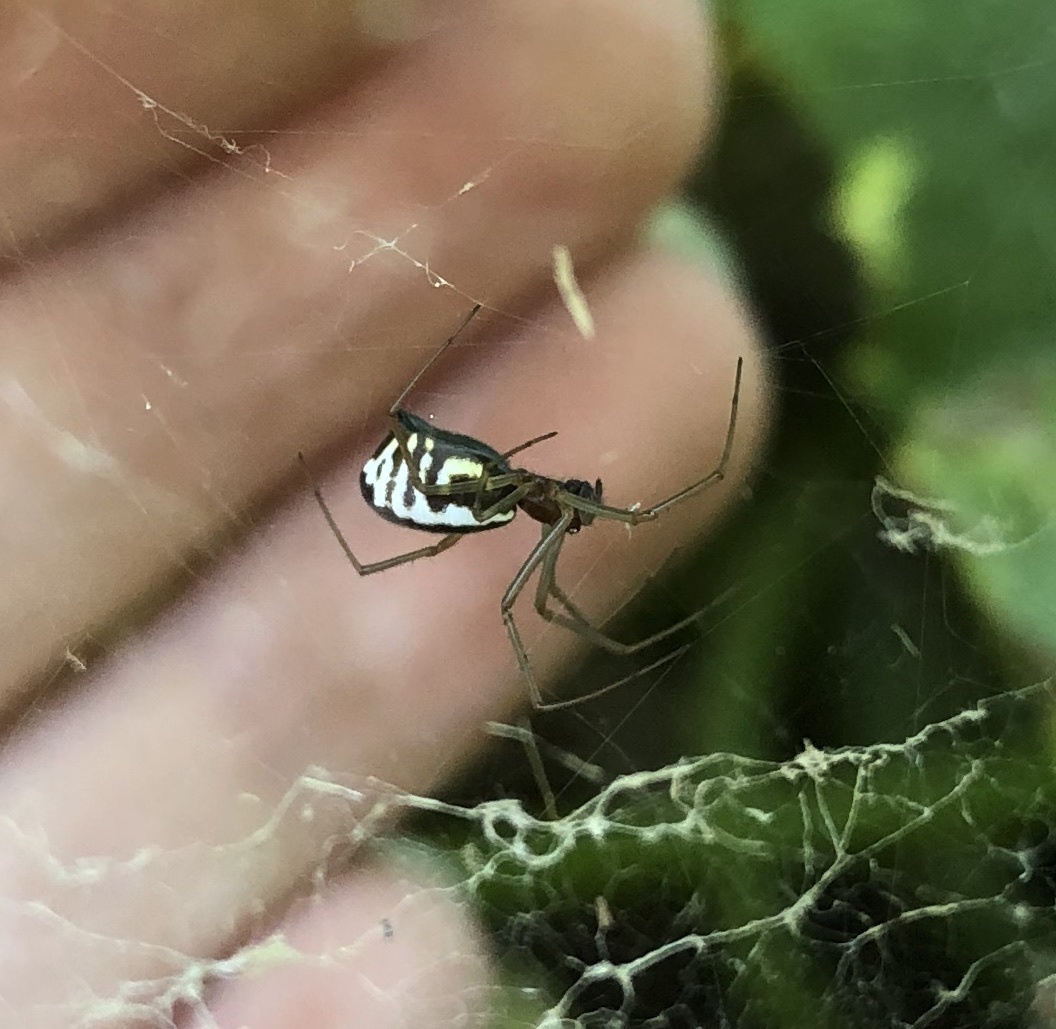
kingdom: Animalia
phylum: Arthropoda
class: Arachnida
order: Araneae
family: Linyphiidae
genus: Frontinella
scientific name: Frontinella pyramitela
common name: Bowl-and-doily spider
